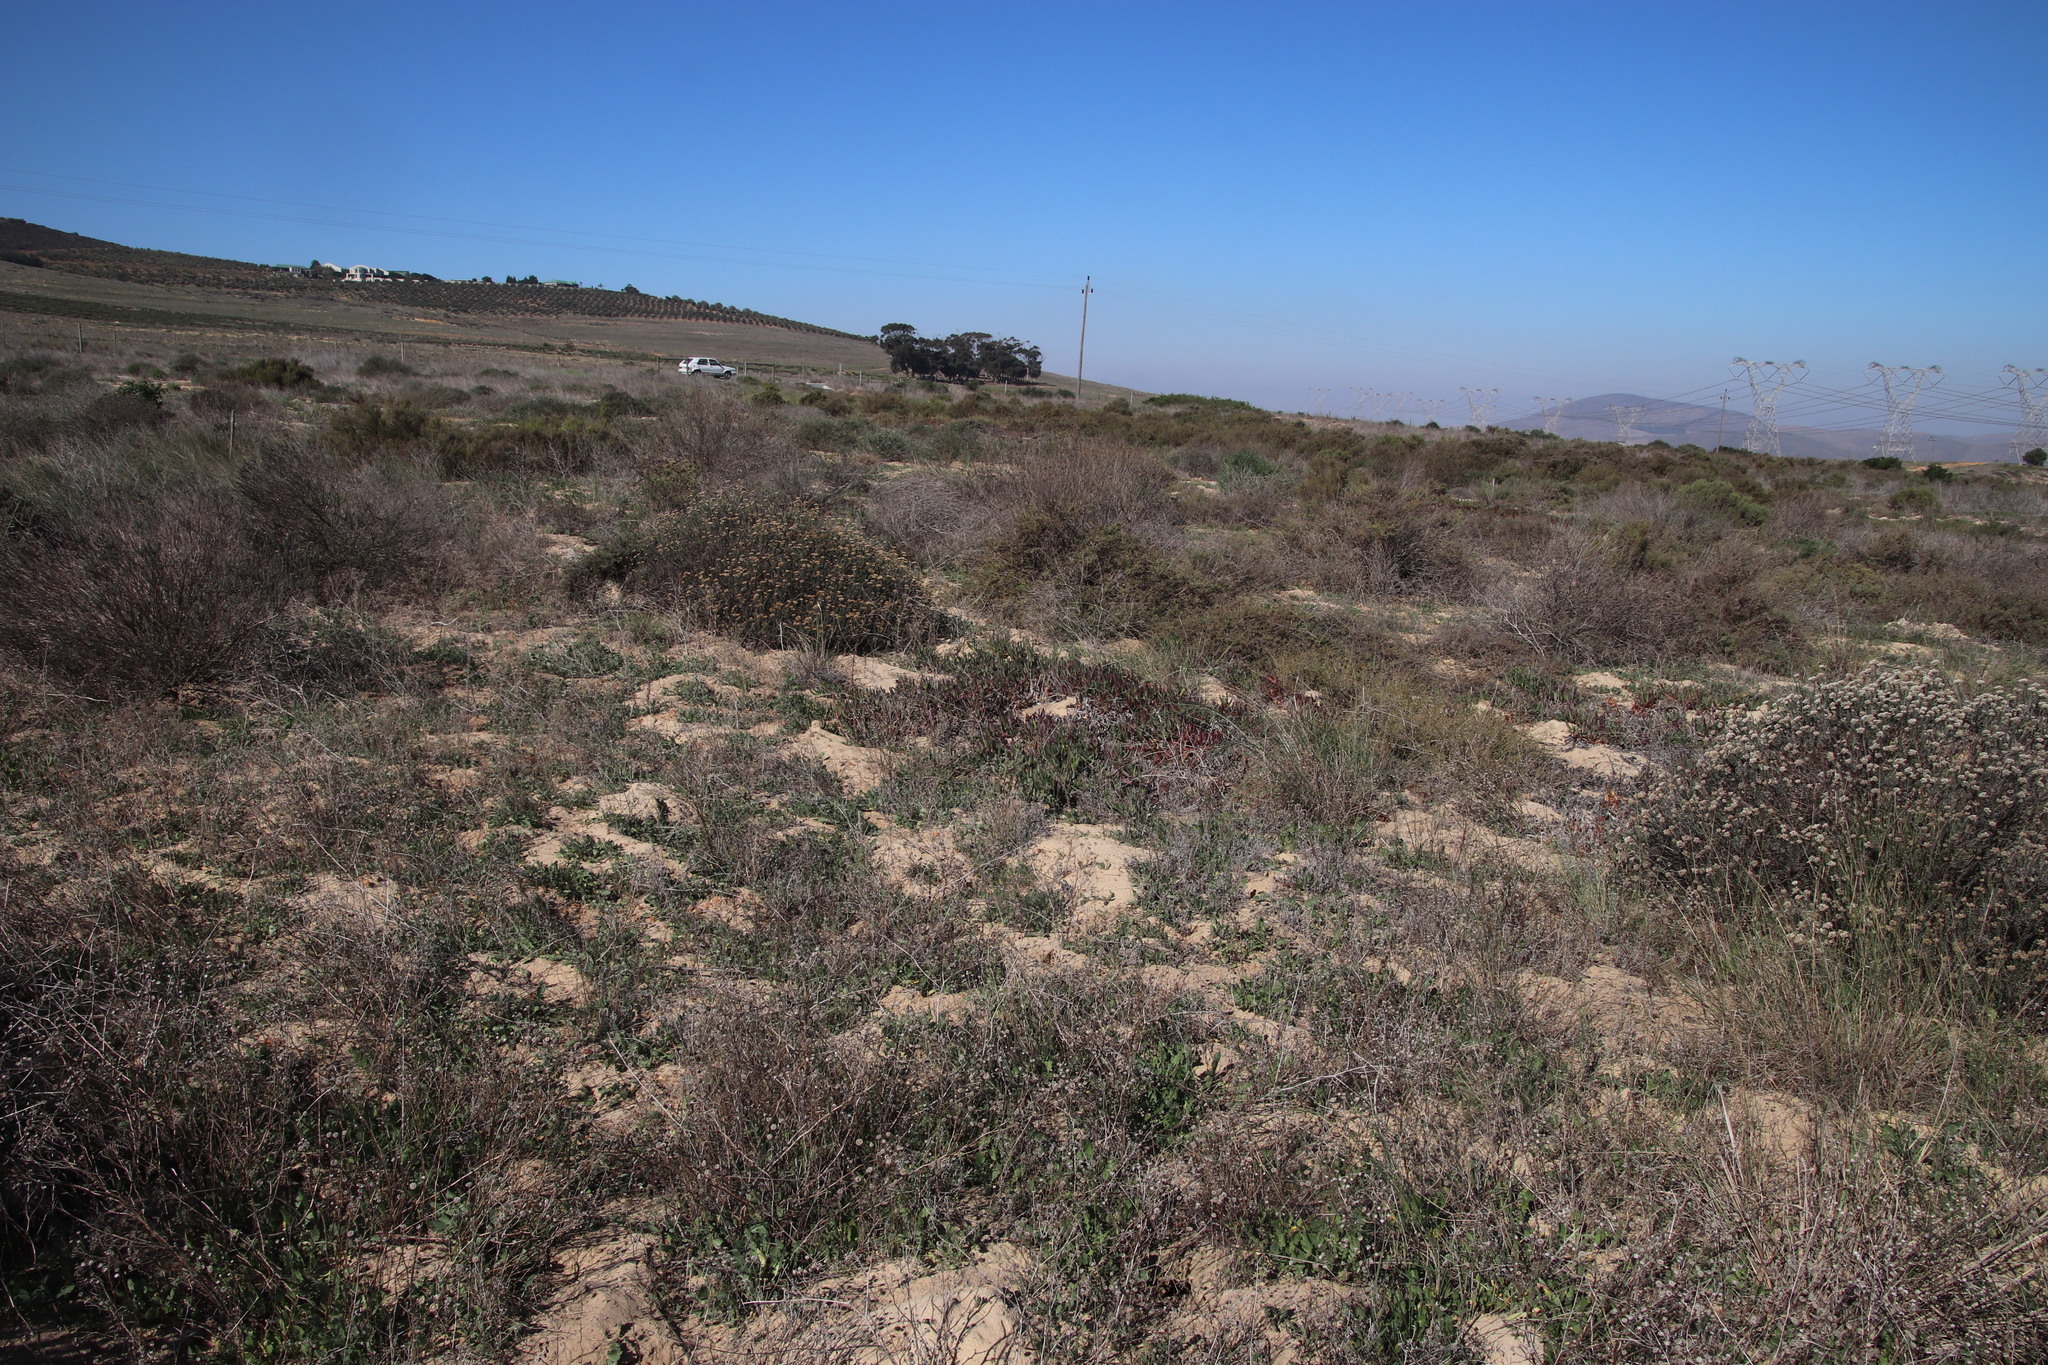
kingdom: Animalia
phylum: Chordata
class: Mammalia
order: Rodentia
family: Bathyergidae
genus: Bathyergus
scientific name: Bathyergus suillus
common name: Cape dune mole rat
